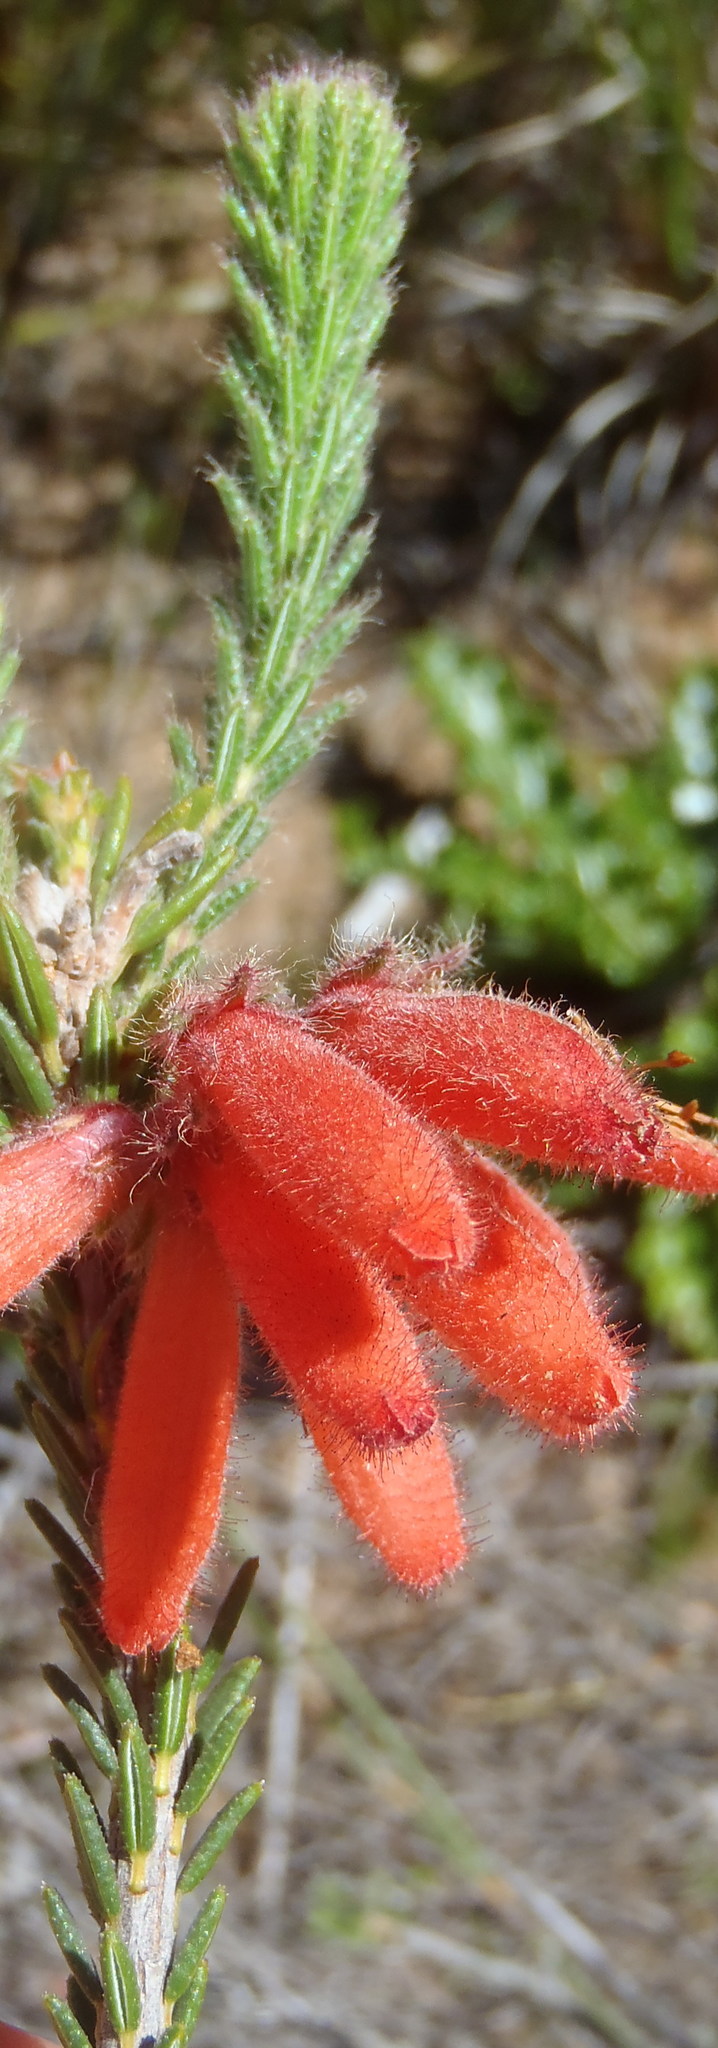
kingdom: Plantae
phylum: Tracheophyta
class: Magnoliopsida
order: Ericales
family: Ericaceae
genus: Erica
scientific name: Erica cerinthoides
